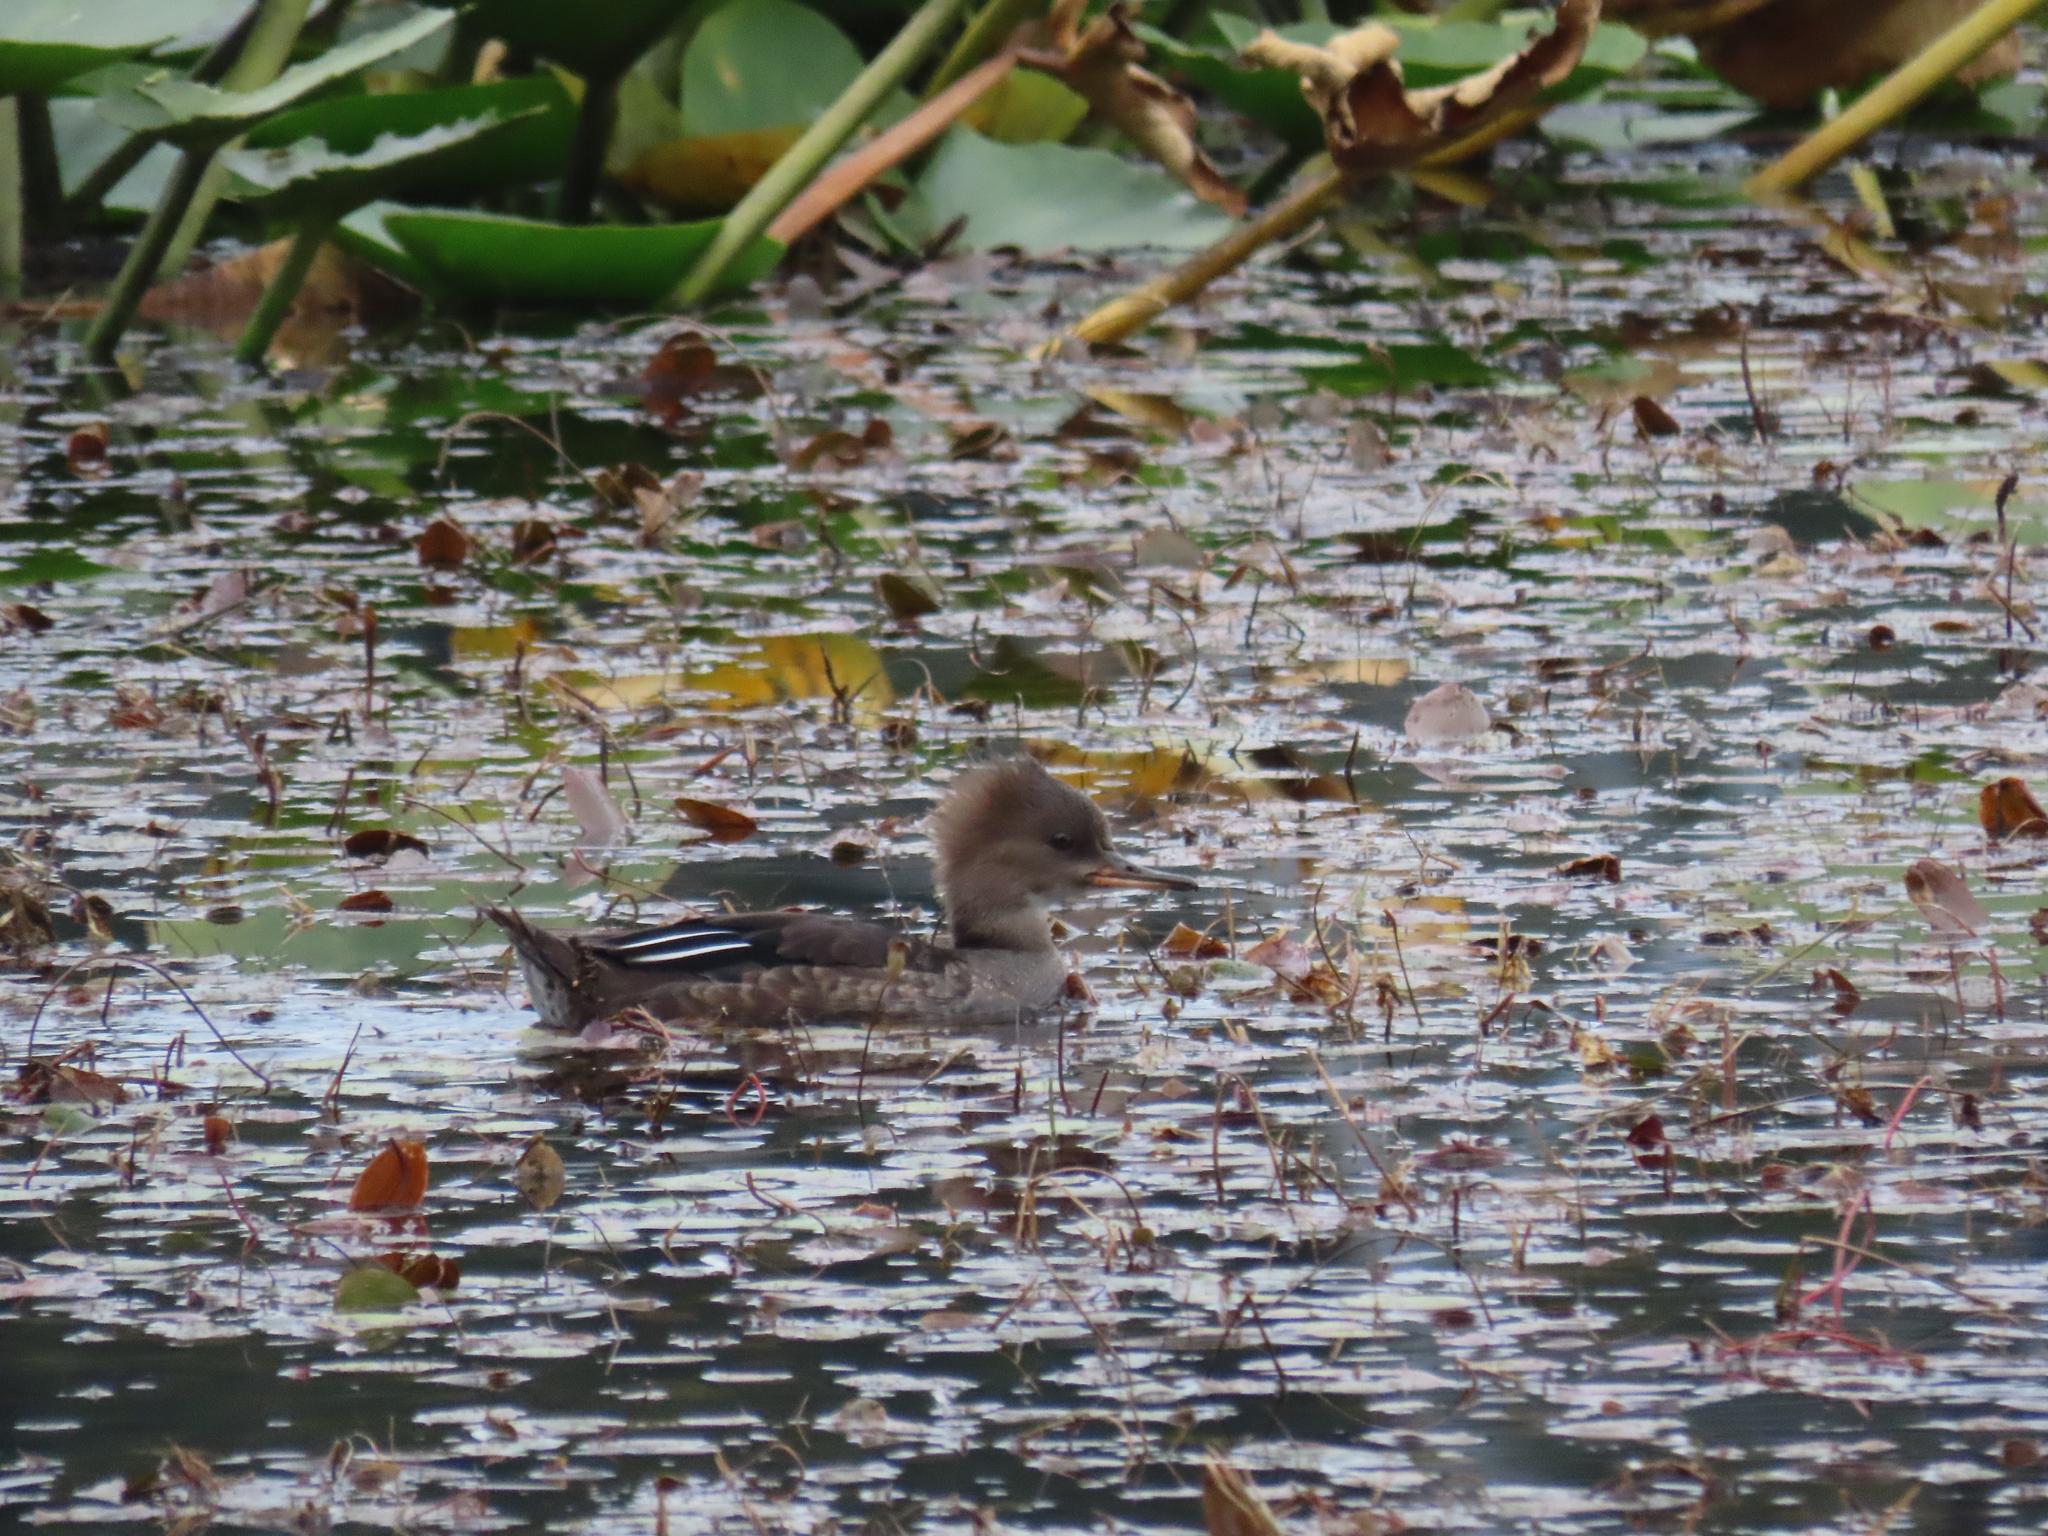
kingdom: Animalia
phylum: Chordata
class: Aves
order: Anseriformes
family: Anatidae
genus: Lophodytes
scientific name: Lophodytes cucullatus
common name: Hooded merganser
